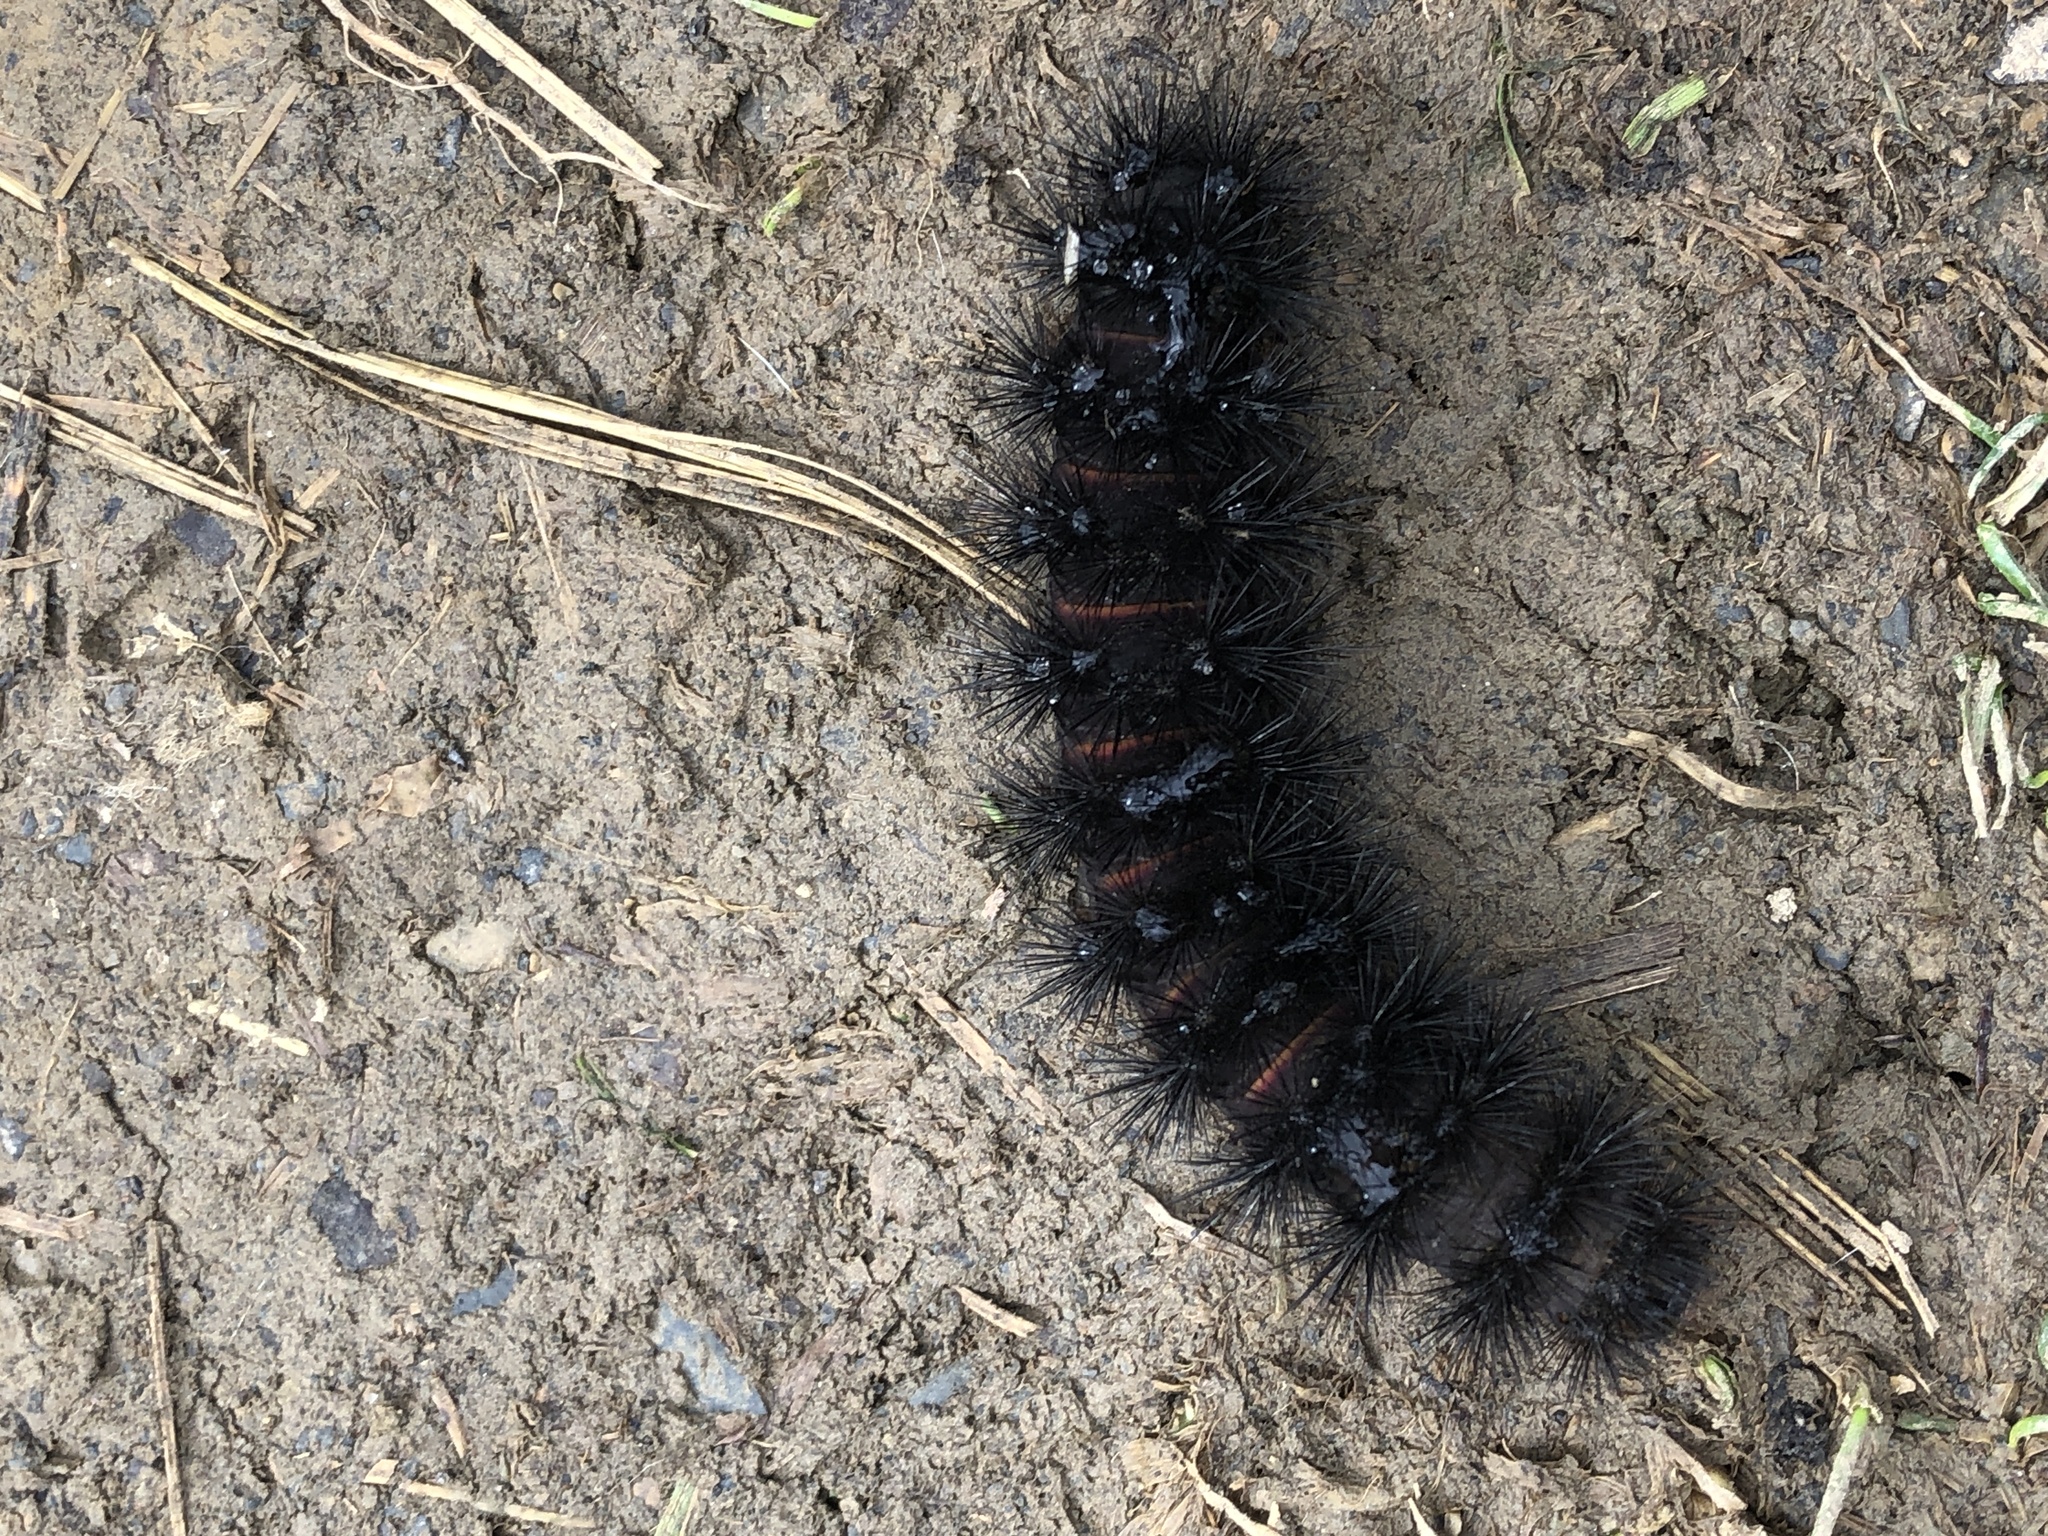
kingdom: Animalia
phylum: Arthropoda
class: Insecta
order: Lepidoptera
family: Erebidae
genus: Hypercompe
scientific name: Hypercompe scribonia
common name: Giant leopard moth
